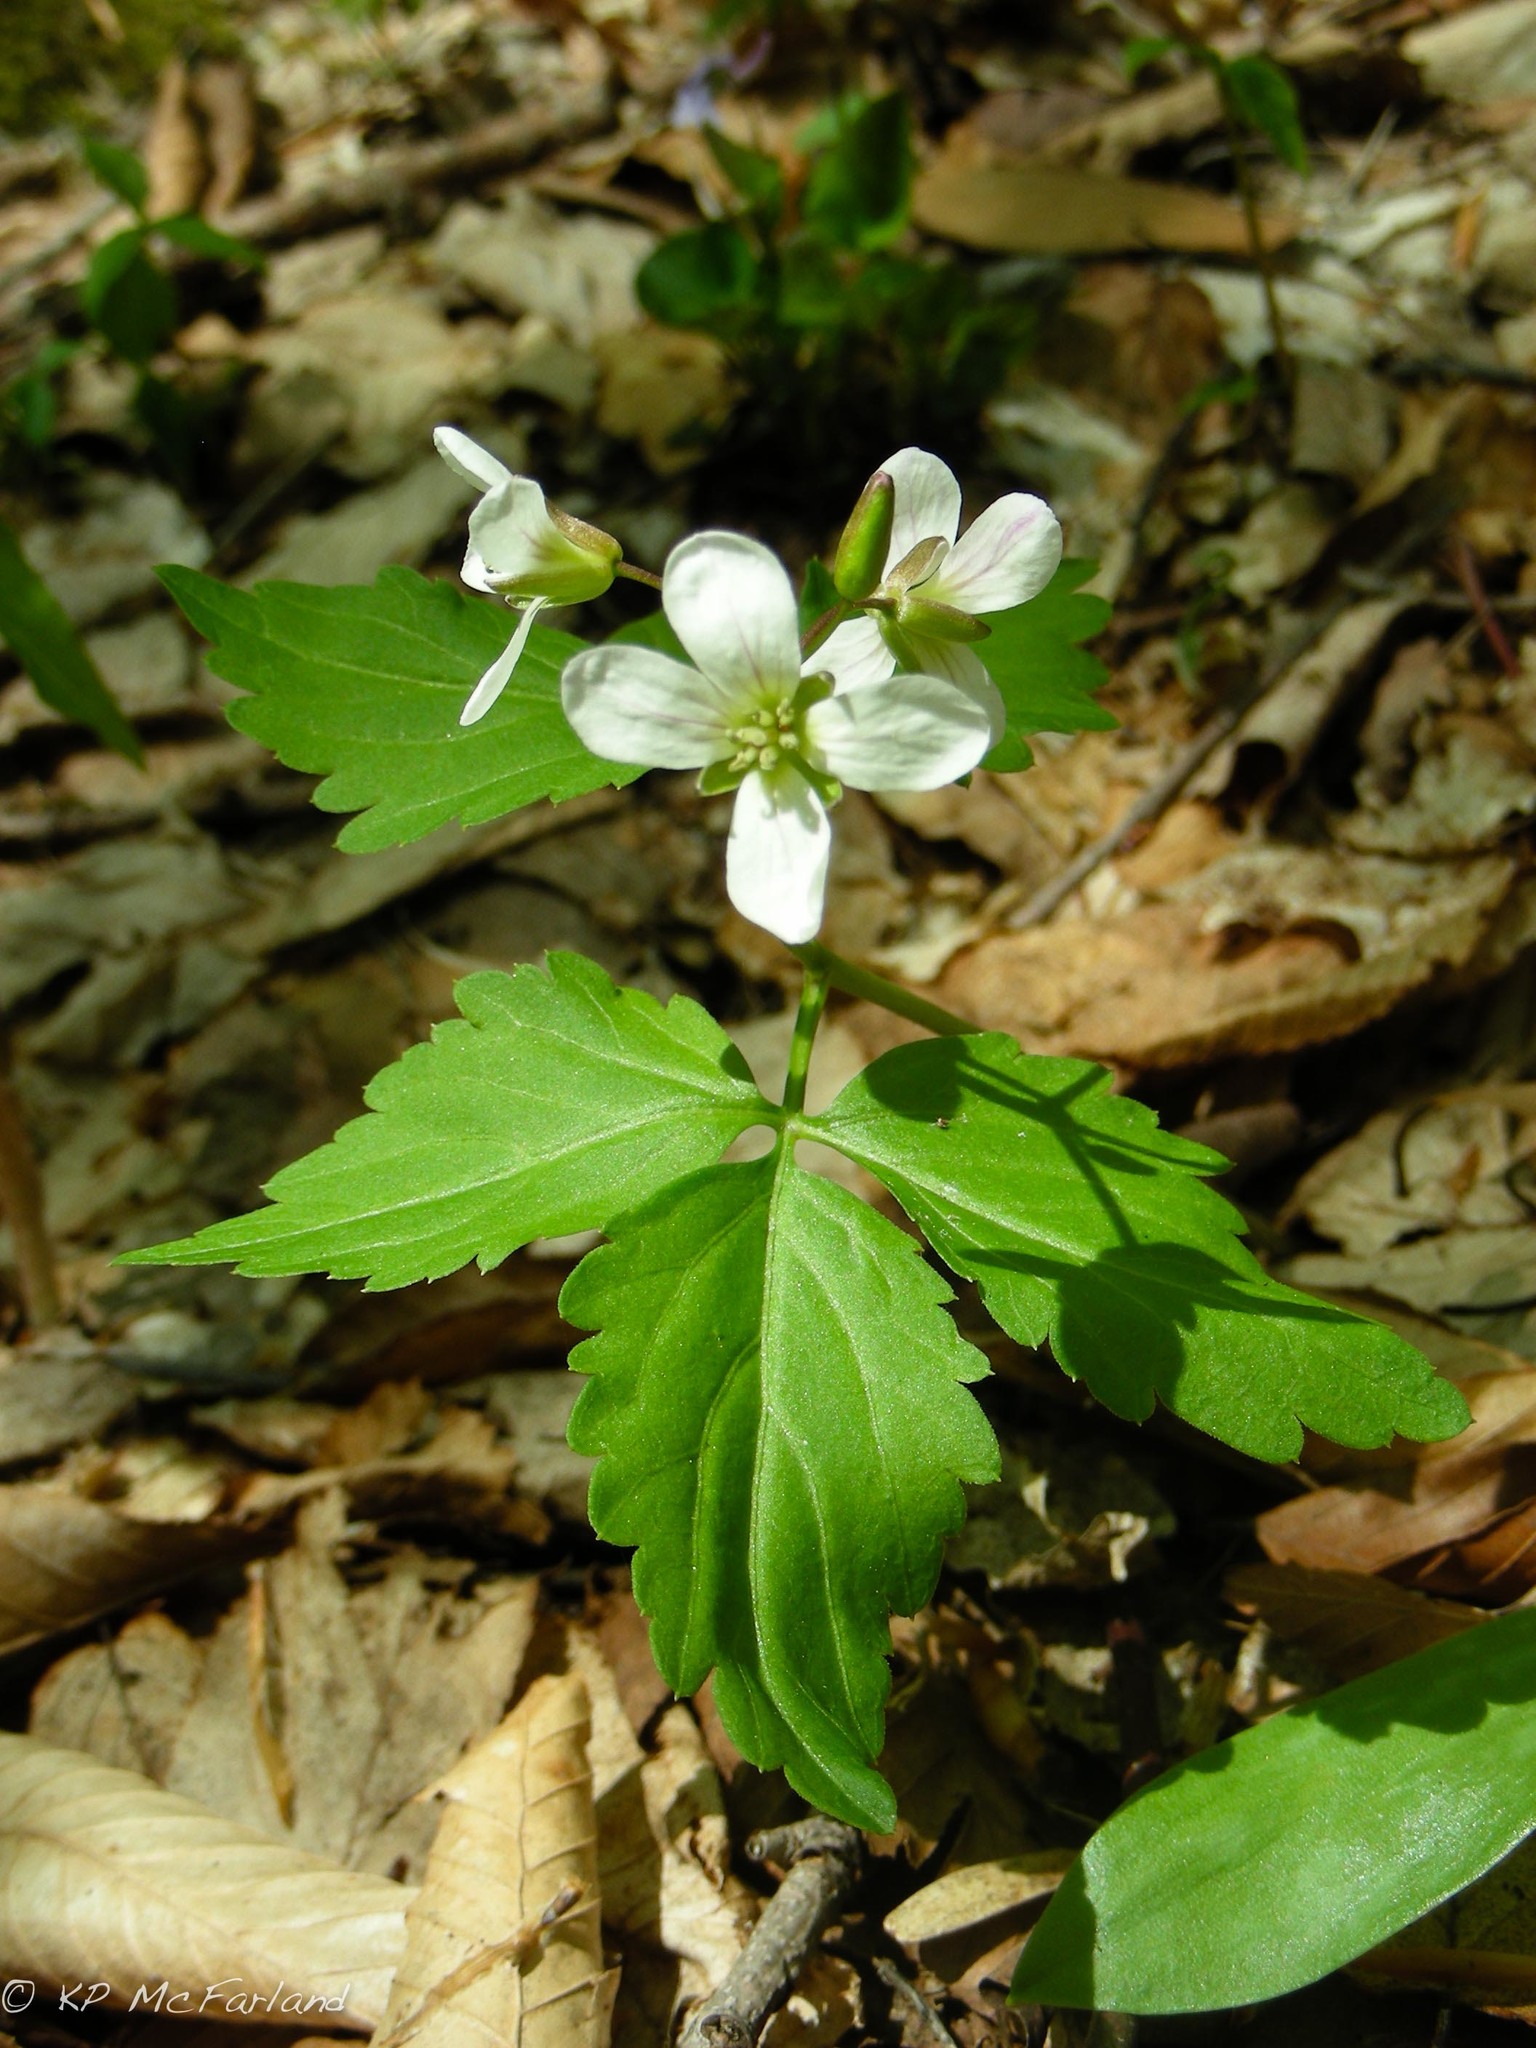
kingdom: Plantae
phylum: Tracheophyta
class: Magnoliopsida
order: Brassicales
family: Brassicaceae
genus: Cardamine
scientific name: Cardamine diphylla
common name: Broad-leaved toothwort
